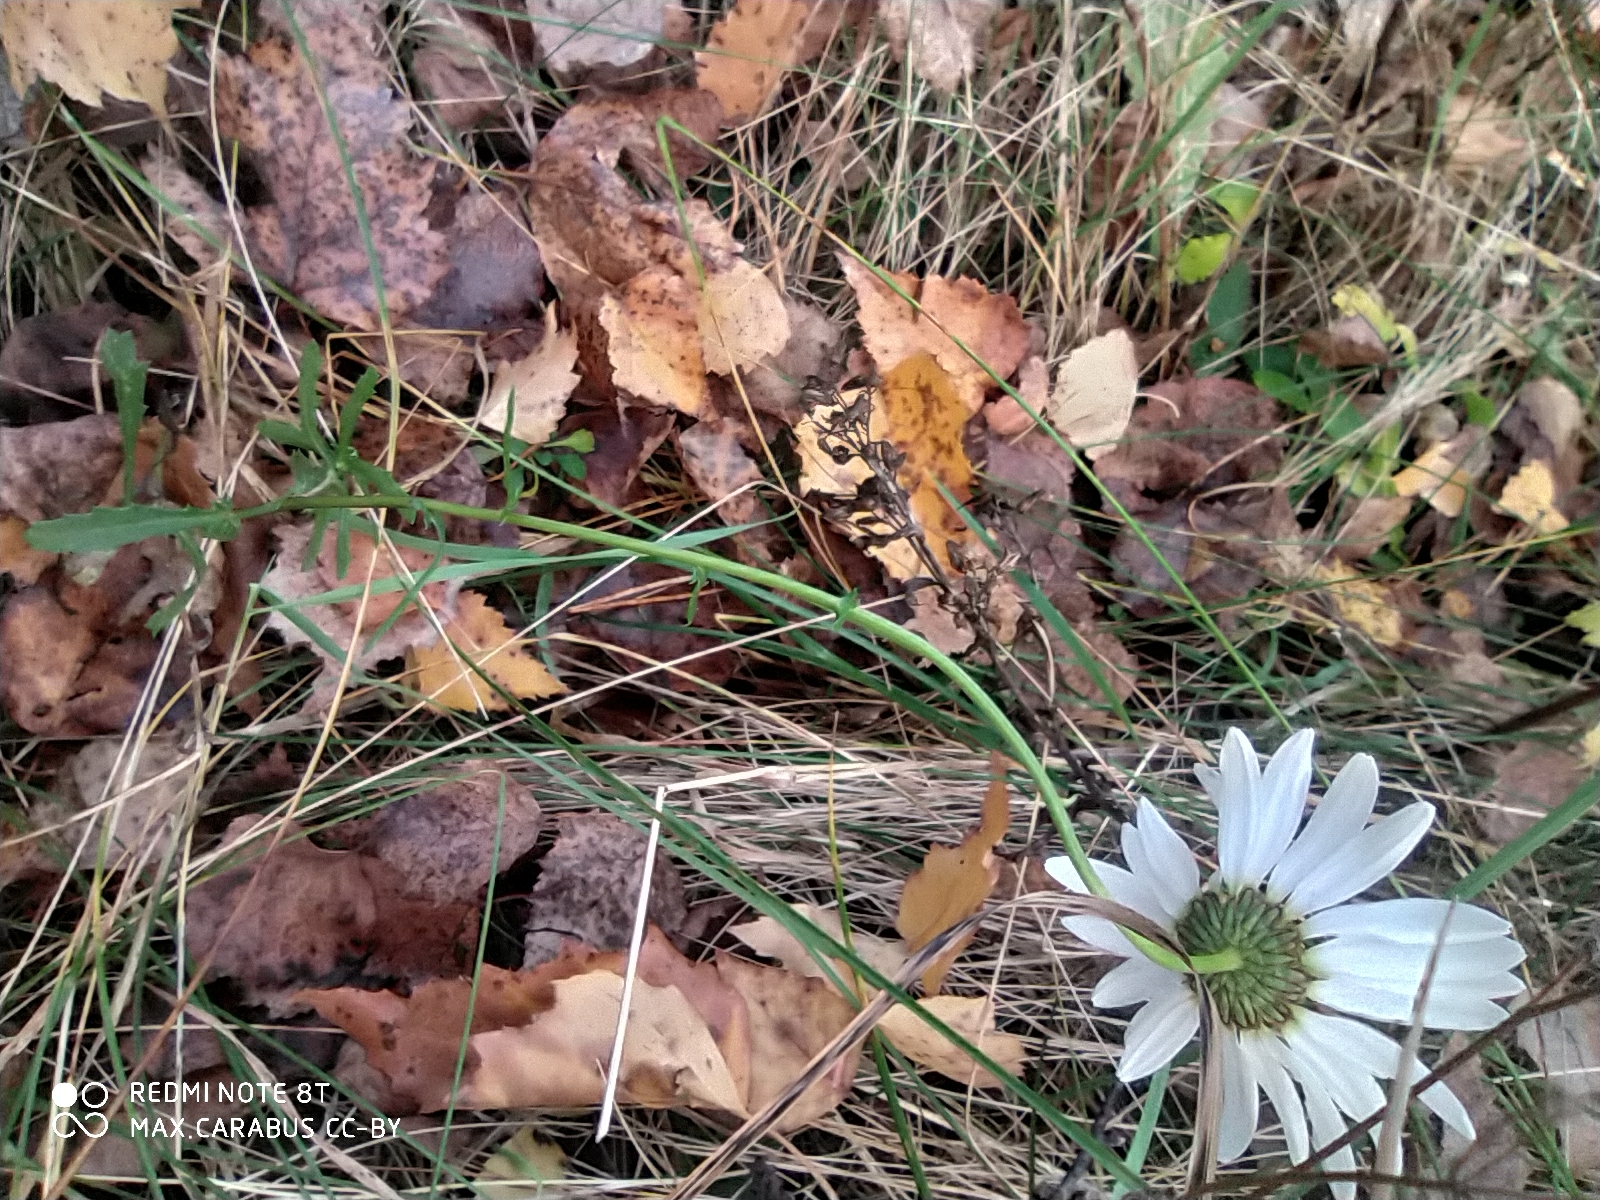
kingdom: Plantae
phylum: Tracheophyta
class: Magnoliopsida
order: Asterales
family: Asteraceae
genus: Leucanthemum
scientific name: Leucanthemum vulgare
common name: Oxeye daisy
